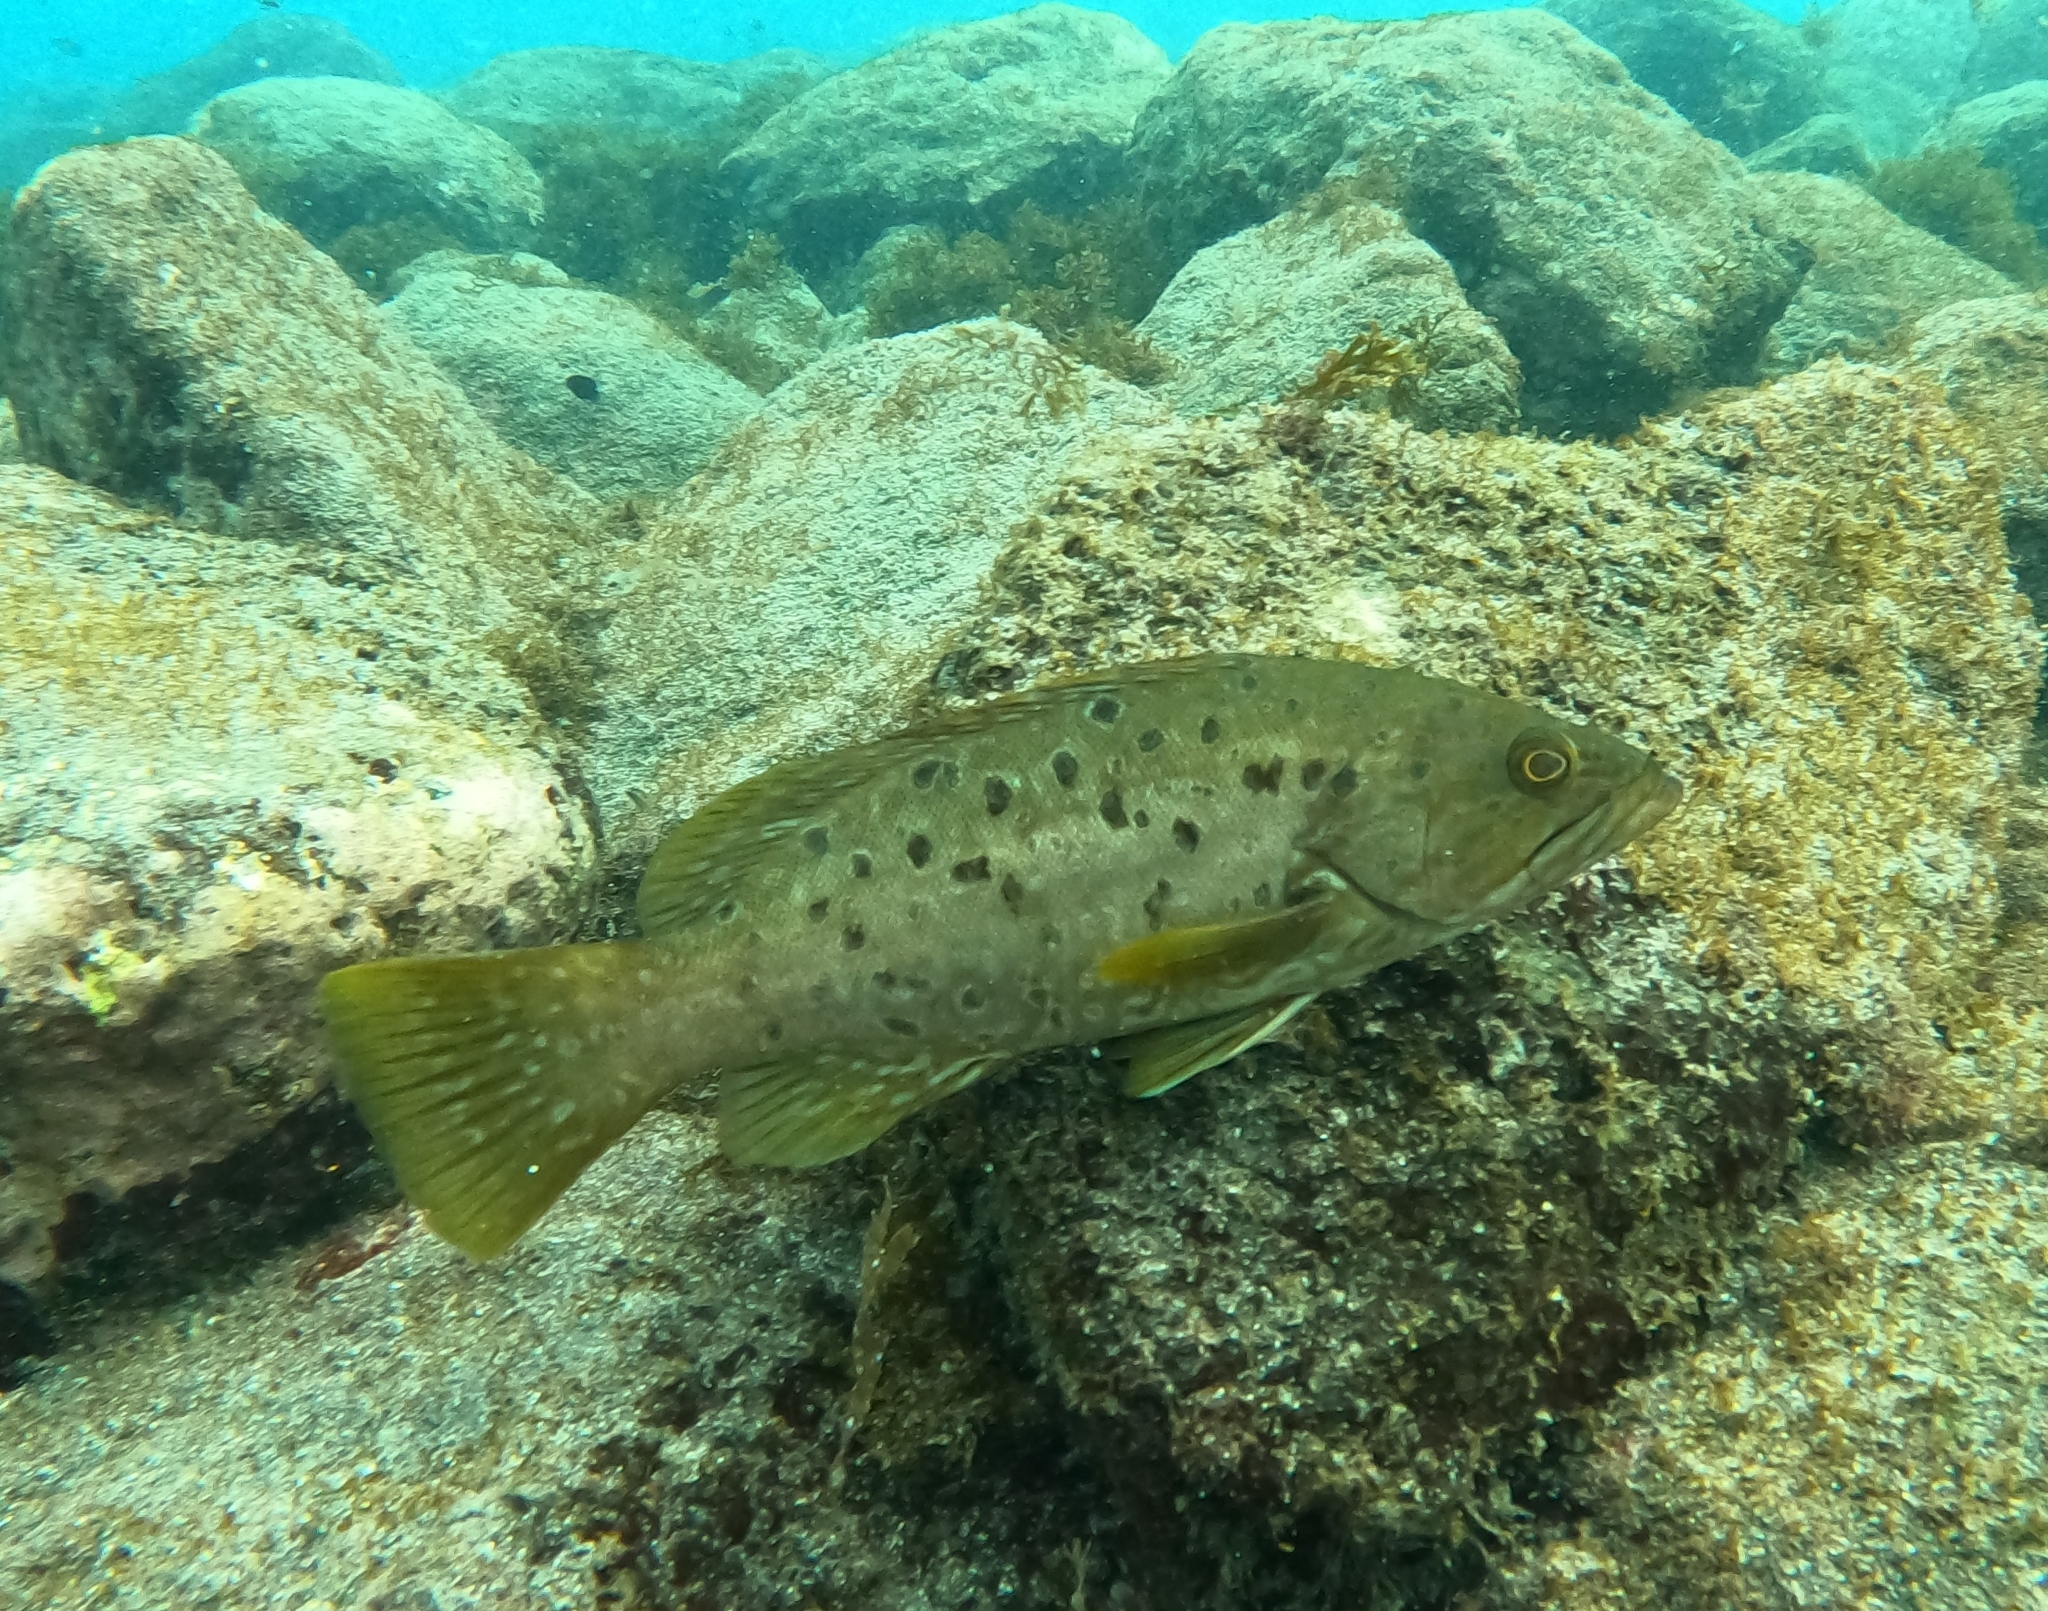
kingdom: Animalia
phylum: Chordata
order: Perciformes
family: Serranidae
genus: Mycteroperca
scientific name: Mycteroperca fusca
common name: Island grouper
